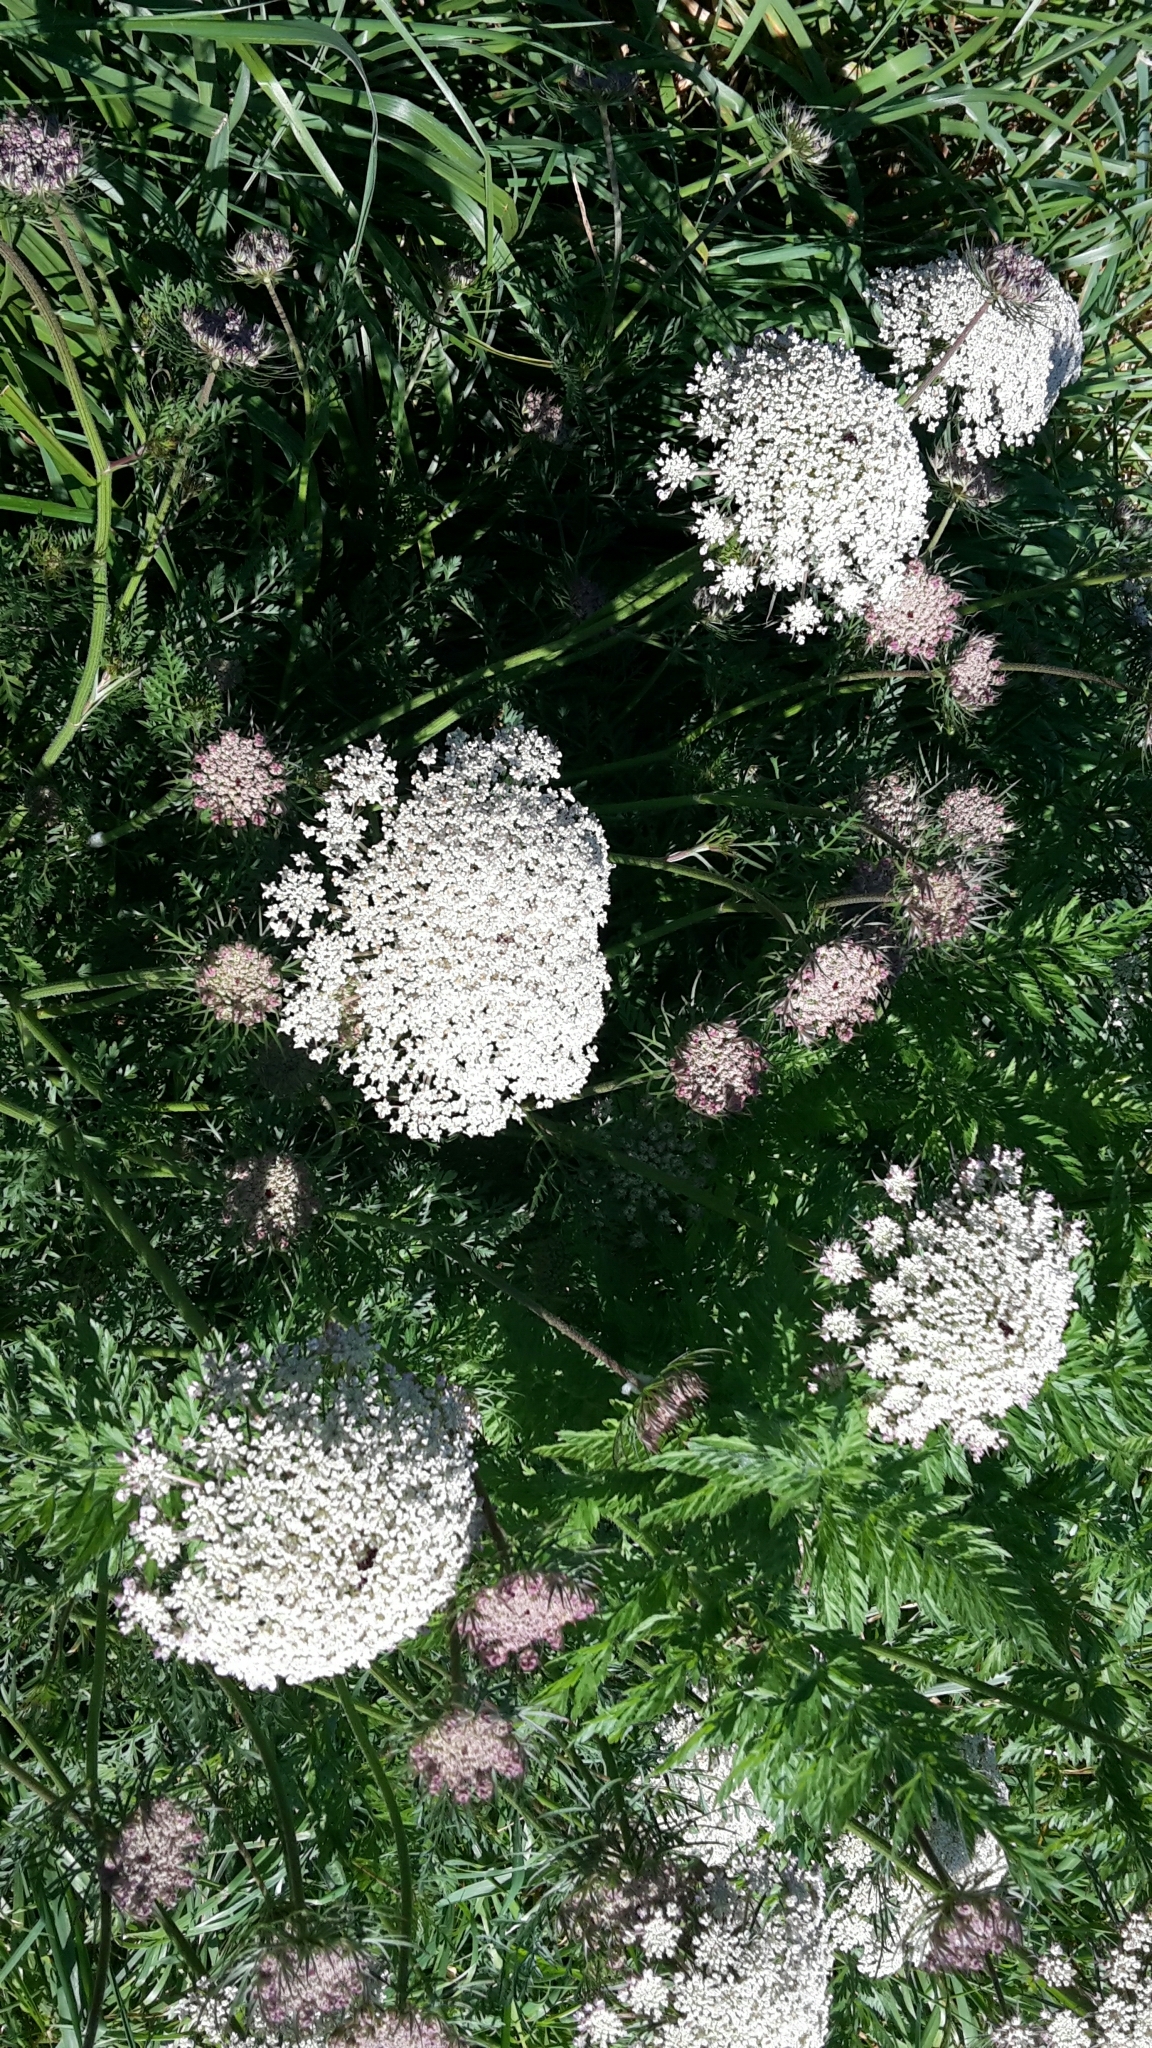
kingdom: Plantae
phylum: Tracheophyta
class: Magnoliopsida
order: Apiales
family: Apiaceae
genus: Daucus
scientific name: Daucus carota
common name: Wild carrot
